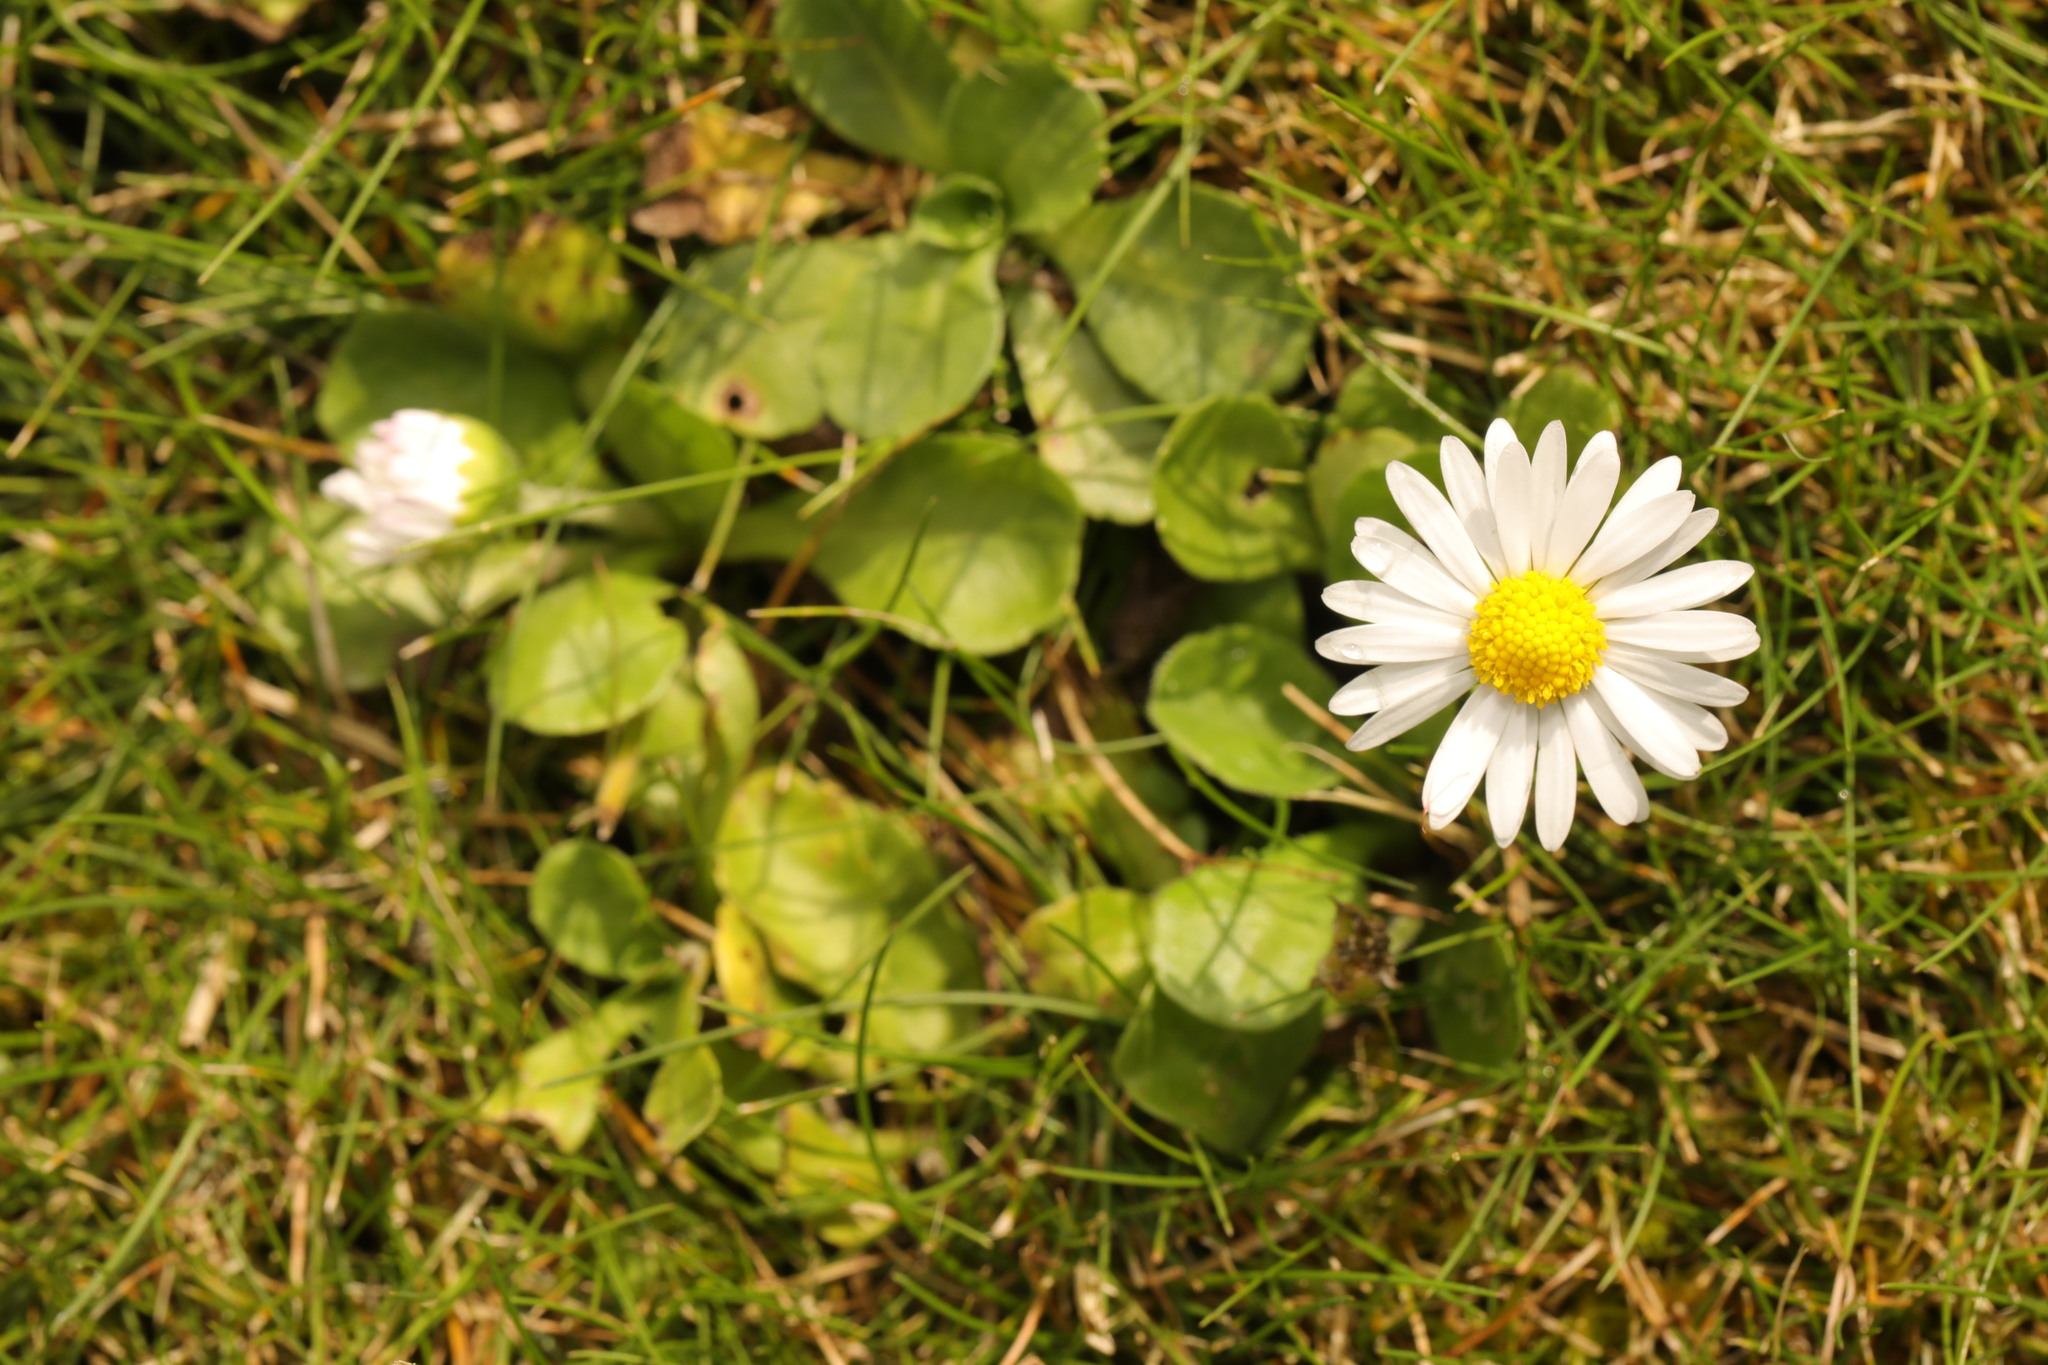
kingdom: Plantae
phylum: Tracheophyta
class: Magnoliopsida
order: Asterales
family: Asteraceae
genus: Bellis
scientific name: Bellis perennis
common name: Lawndaisy
